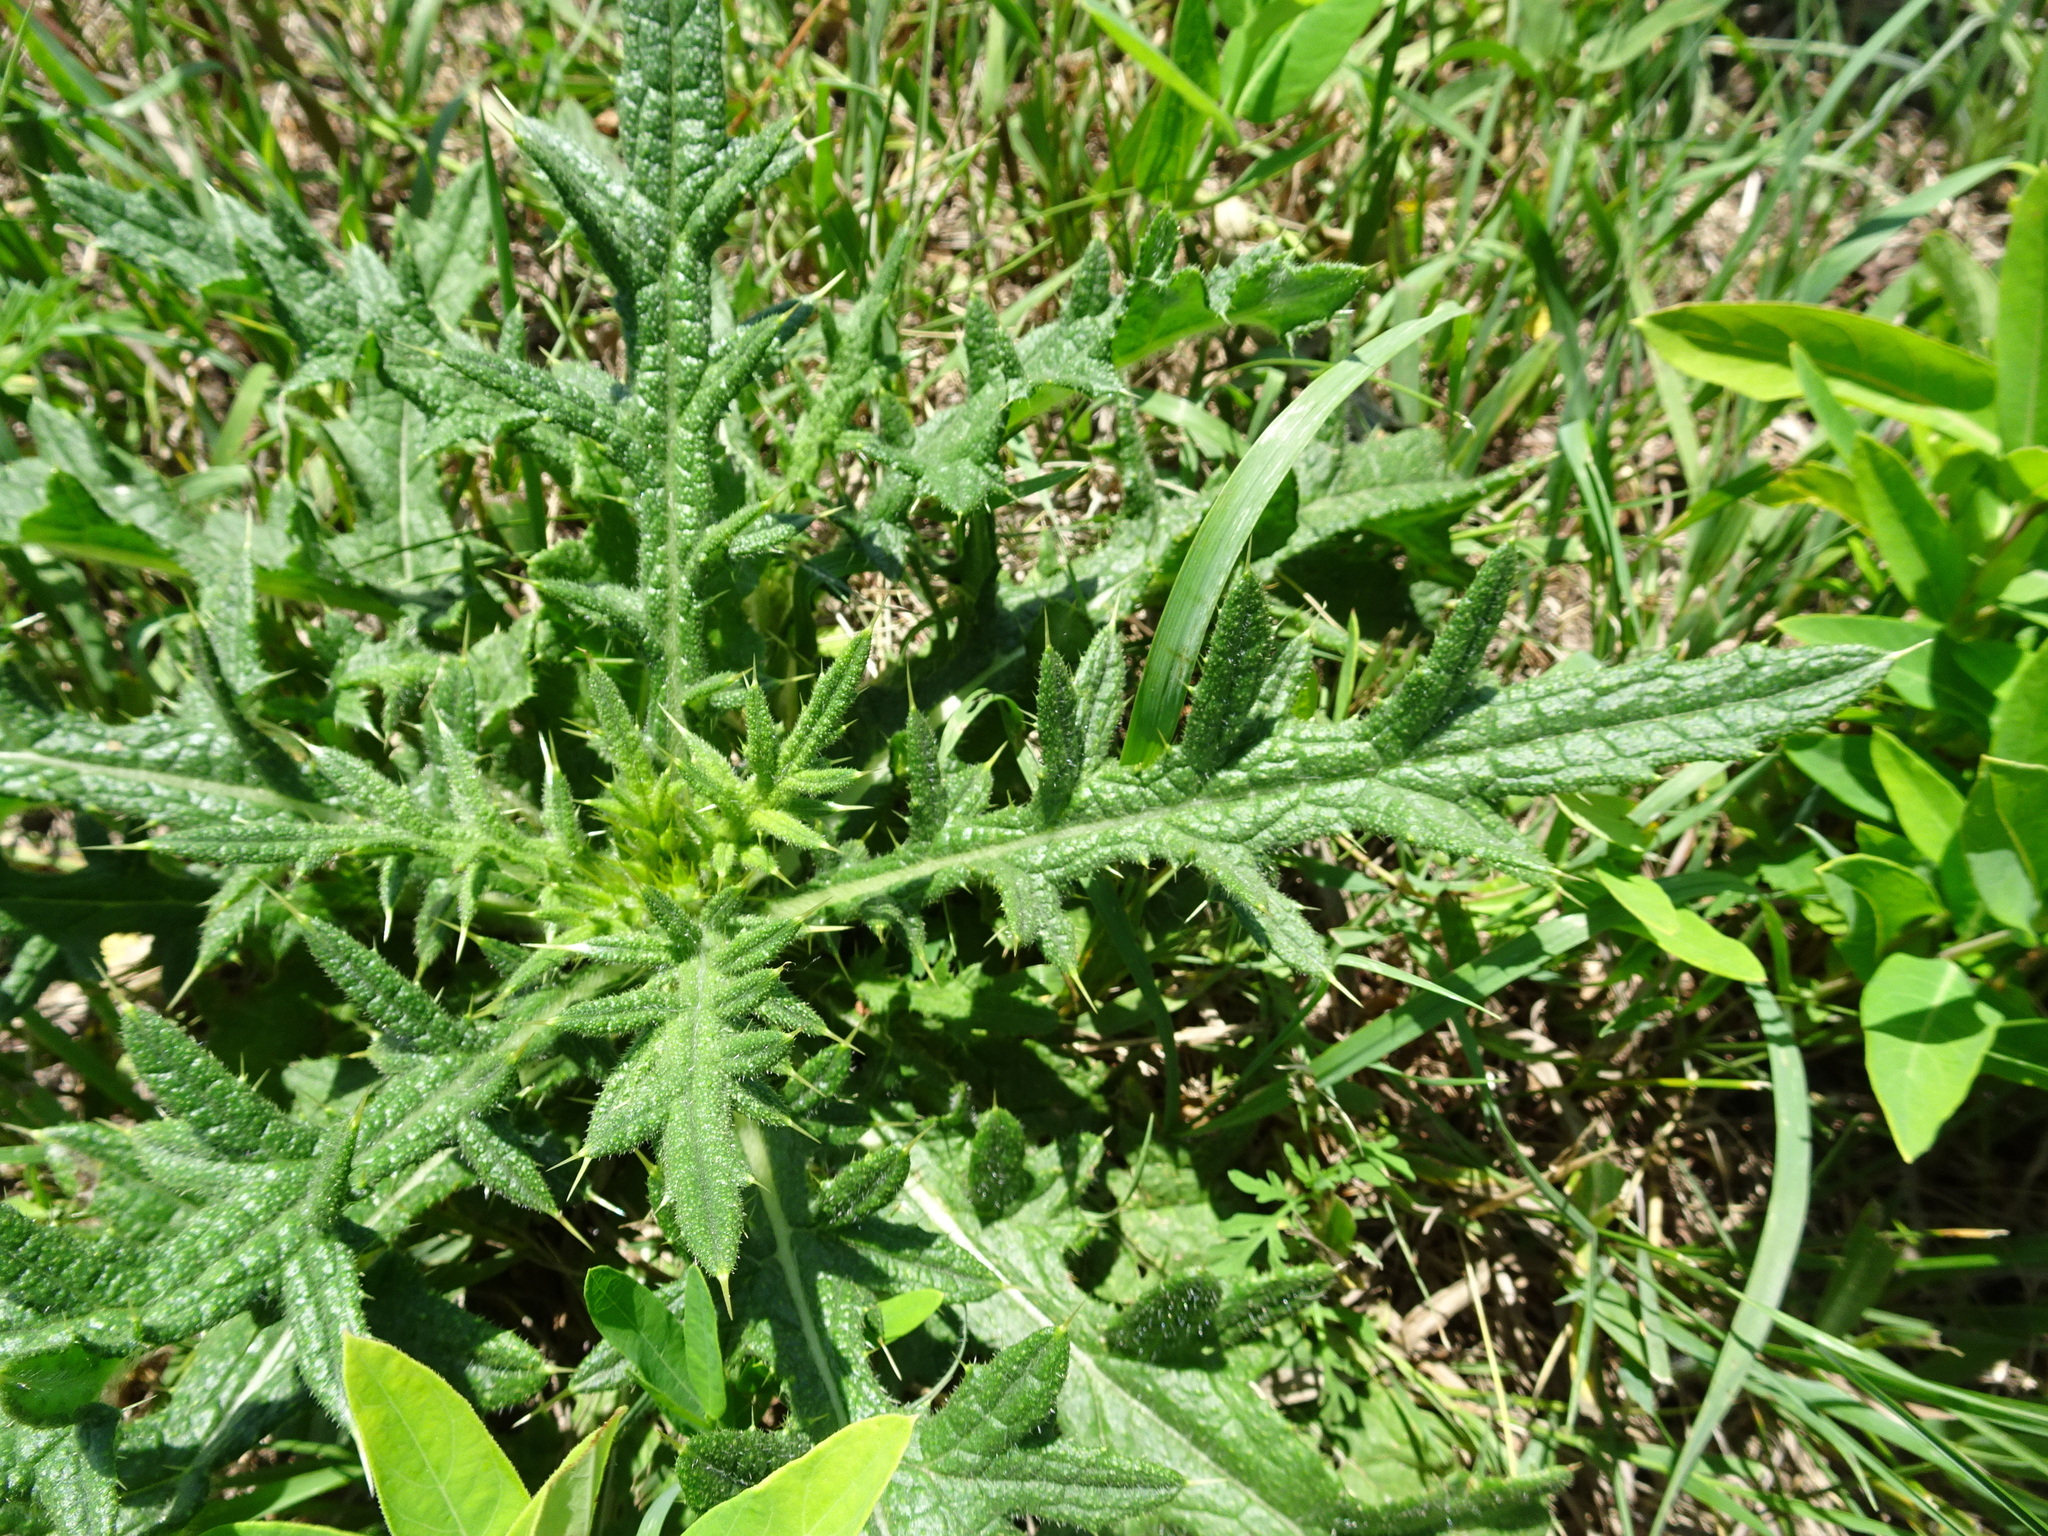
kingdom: Plantae
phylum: Tracheophyta
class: Magnoliopsida
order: Asterales
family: Asteraceae
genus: Cirsium
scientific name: Cirsium vulgare
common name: Bull thistle
